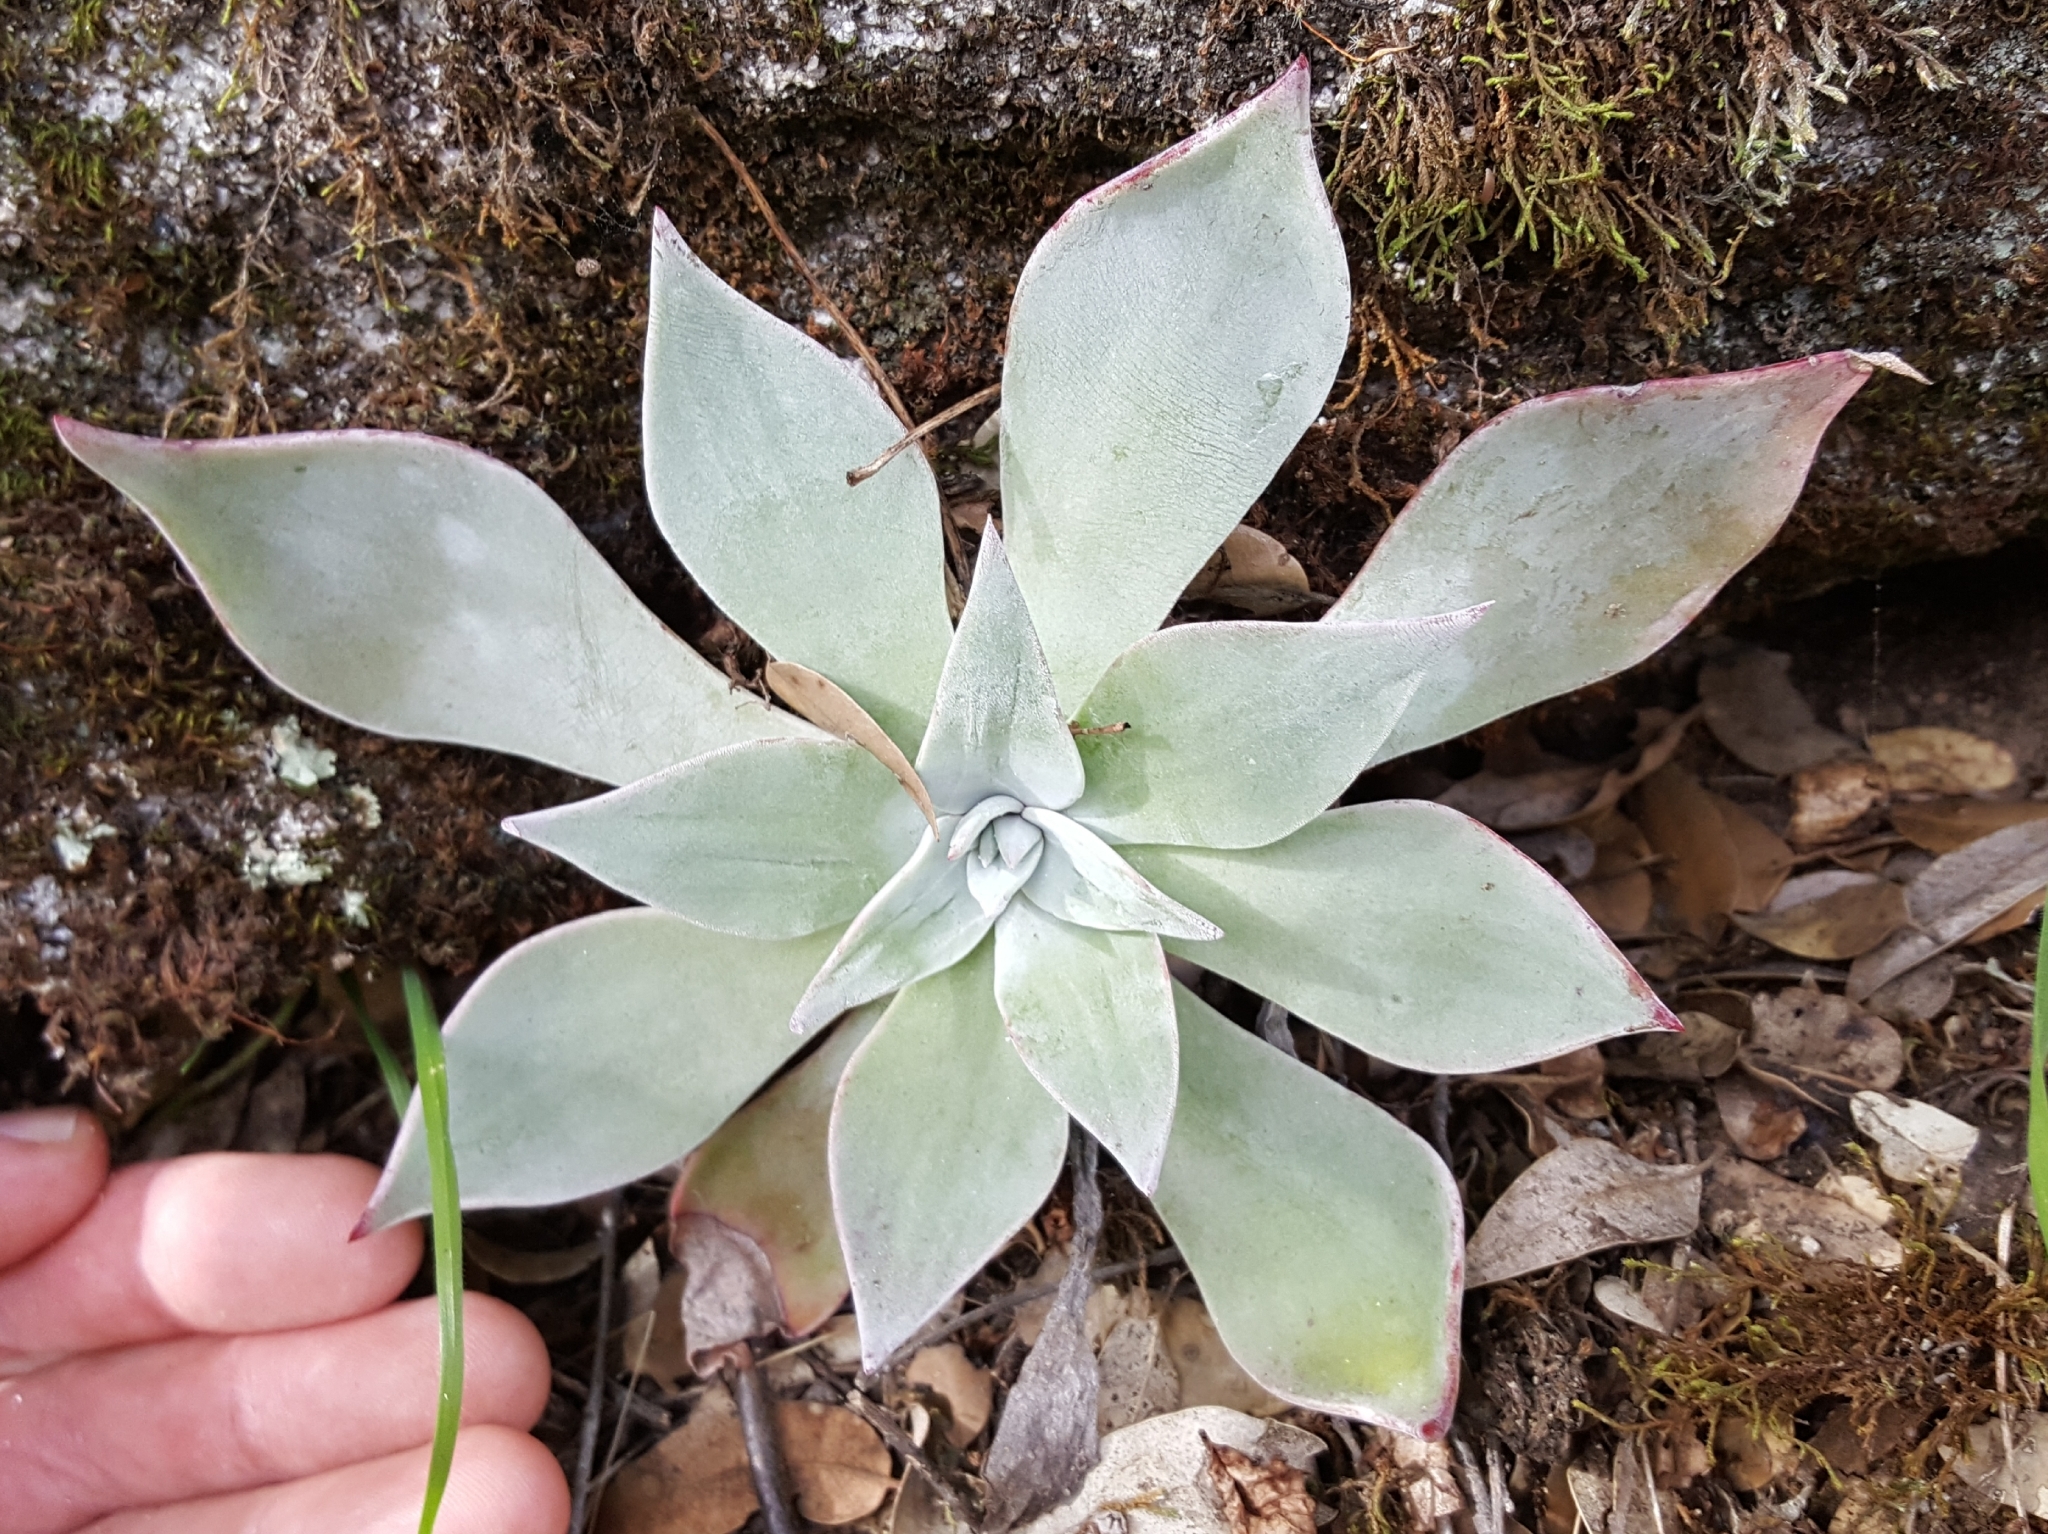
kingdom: Plantae
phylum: Tracheophyta
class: Magnoliopsida
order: Saxifragales
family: Crassulaceae
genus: Dudleya
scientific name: Dudleya cymosa
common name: Canyon dudleya
